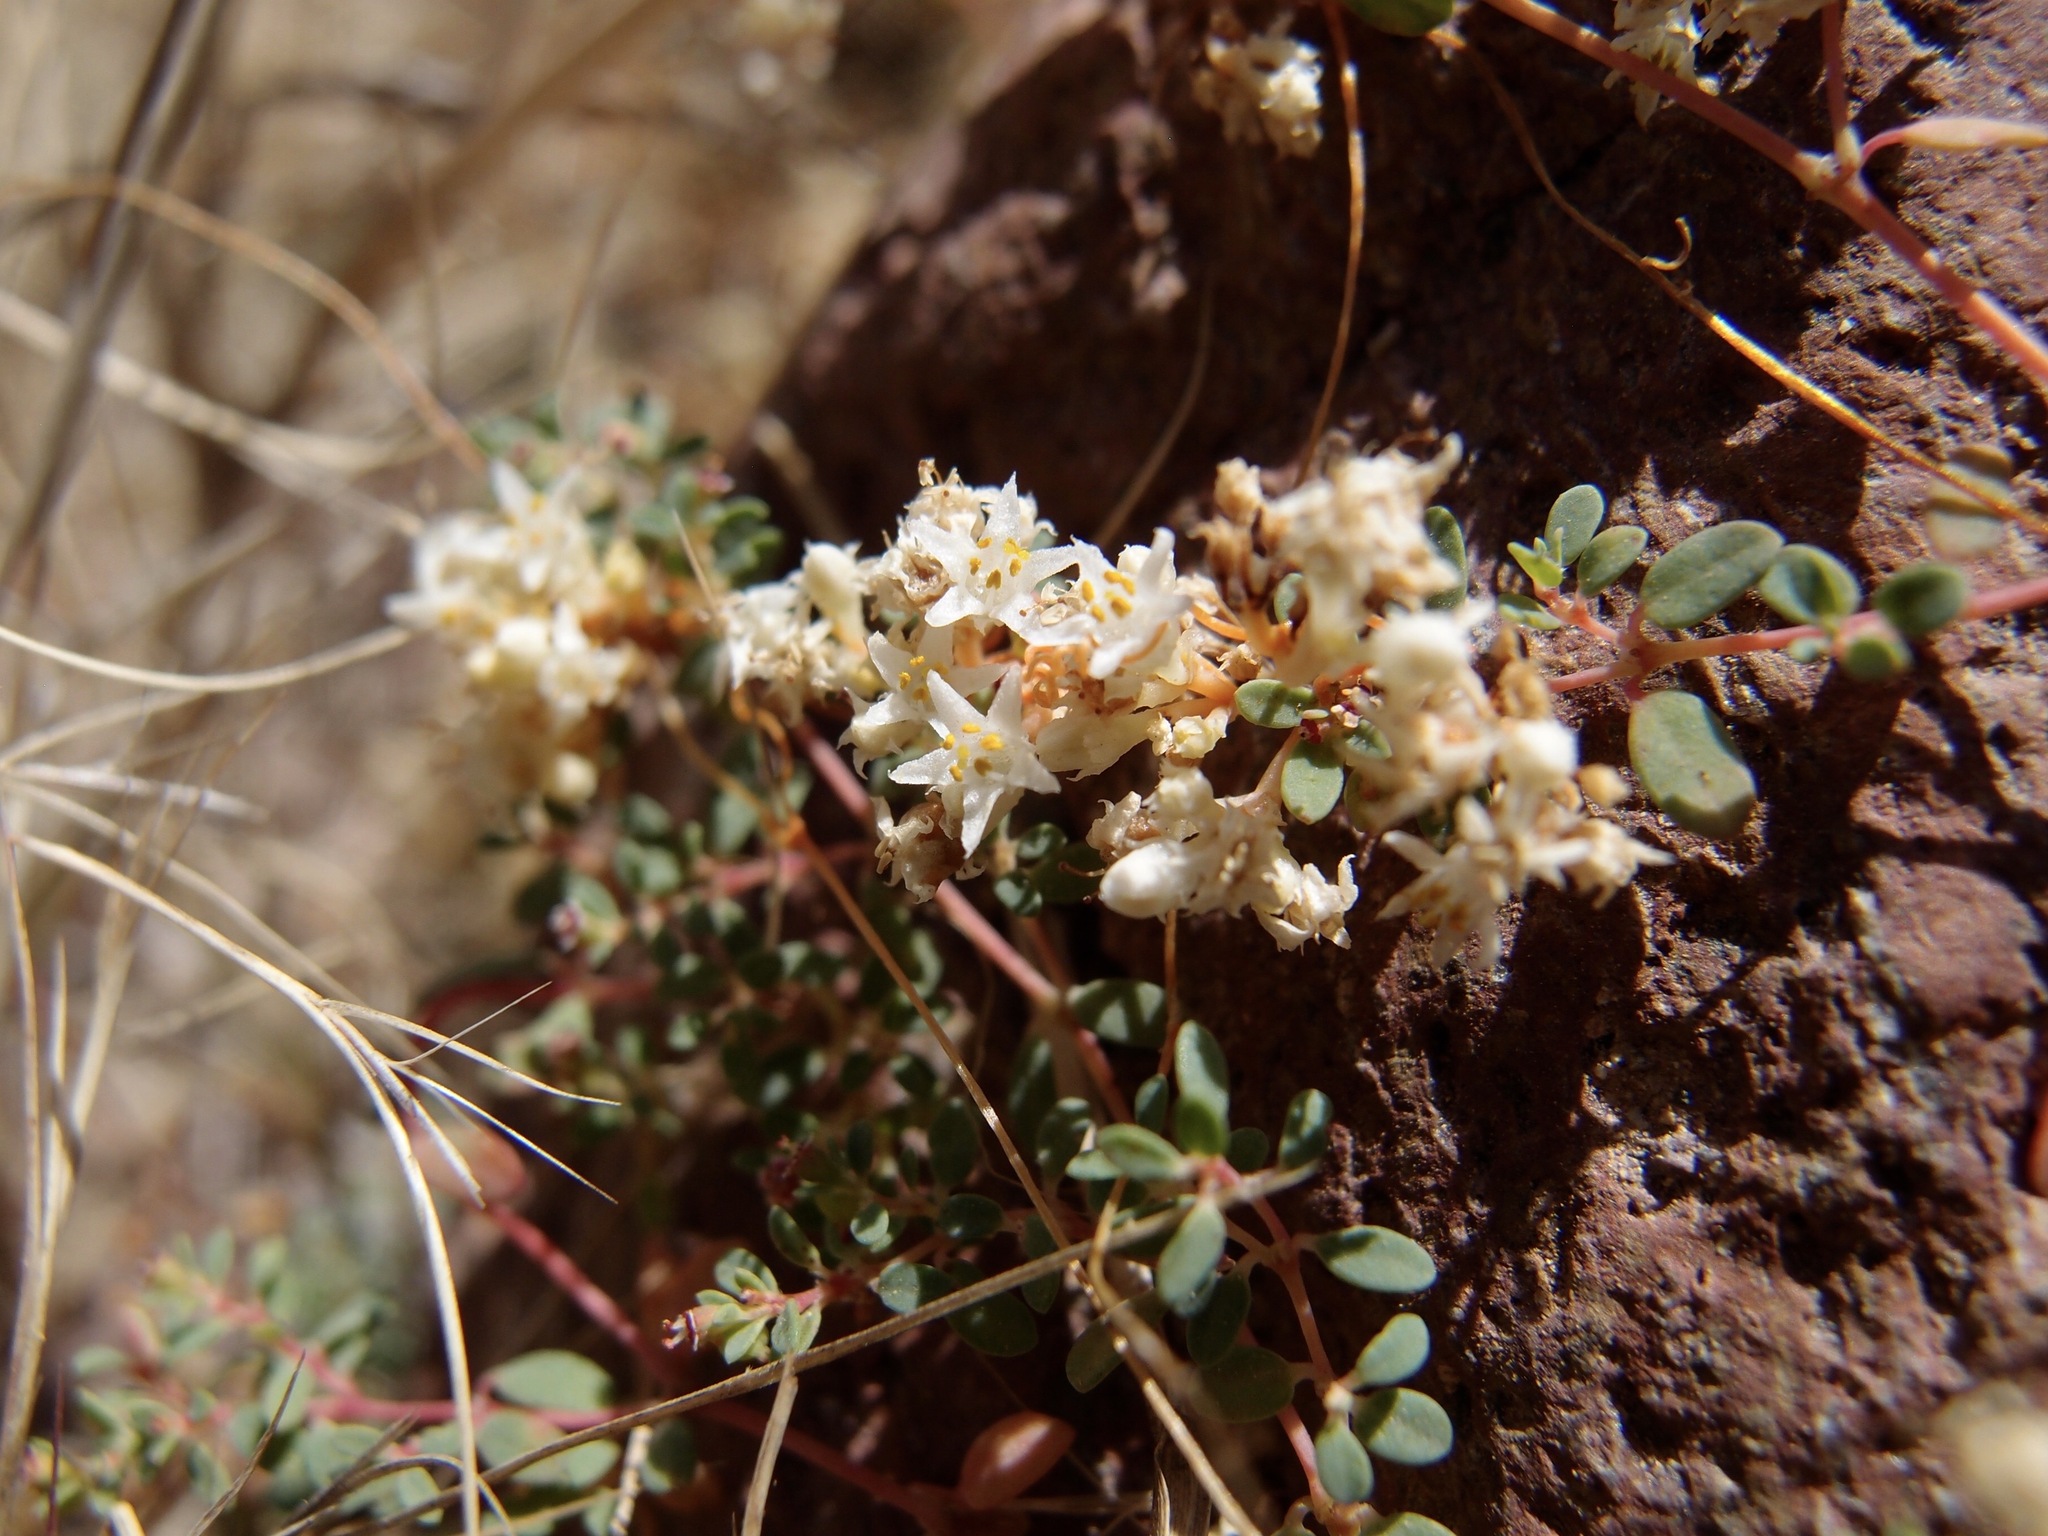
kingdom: Plantae
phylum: Tracheophyta
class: Magnoliopsida
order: Solanales
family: Convolvulaceae
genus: Cuscuta
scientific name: Cuscuta umbellata
